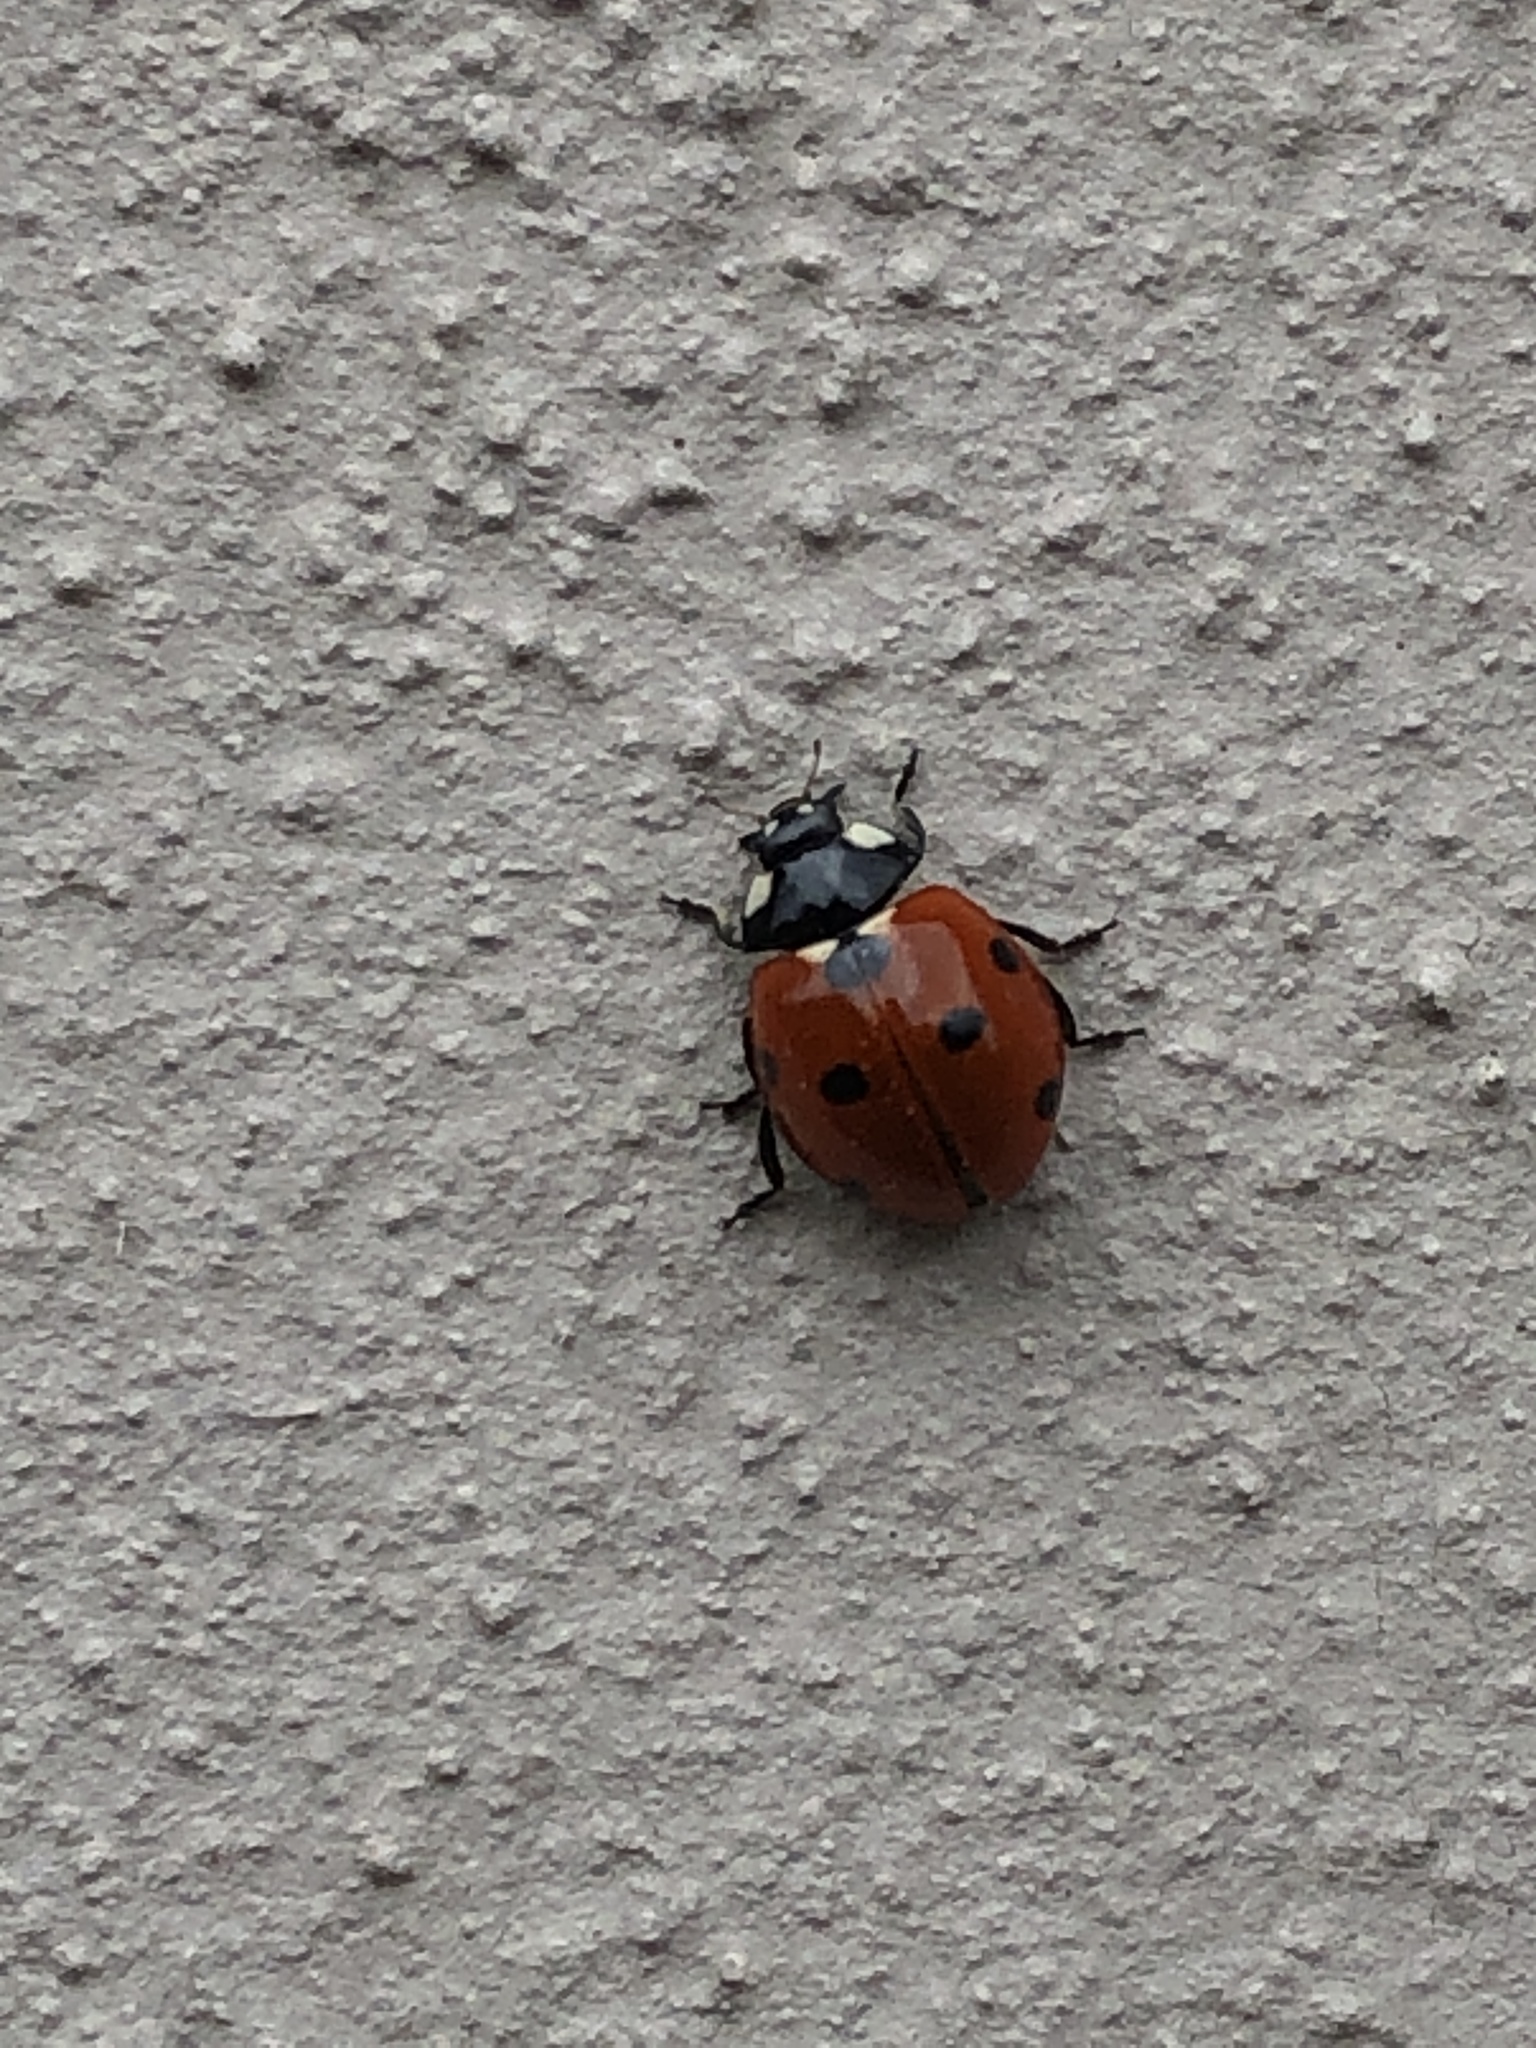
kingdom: Animalia
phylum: Arthropoda
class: Insecta
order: Coleoptera
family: Coccinellidae
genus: Coccinella
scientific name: Coccinella septempunctata
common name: Sevenspotted lady beetle
